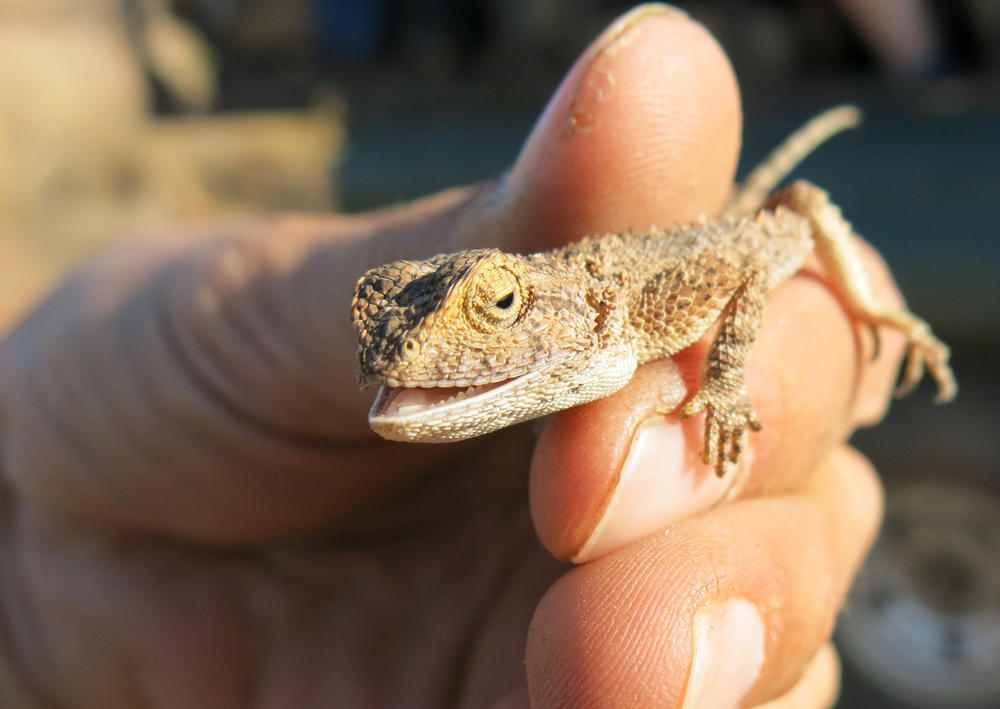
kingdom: Animalia
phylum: Chordata
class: Squamata
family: Agamidae
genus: Agama
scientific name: Agama aculeata
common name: Common ground agama
